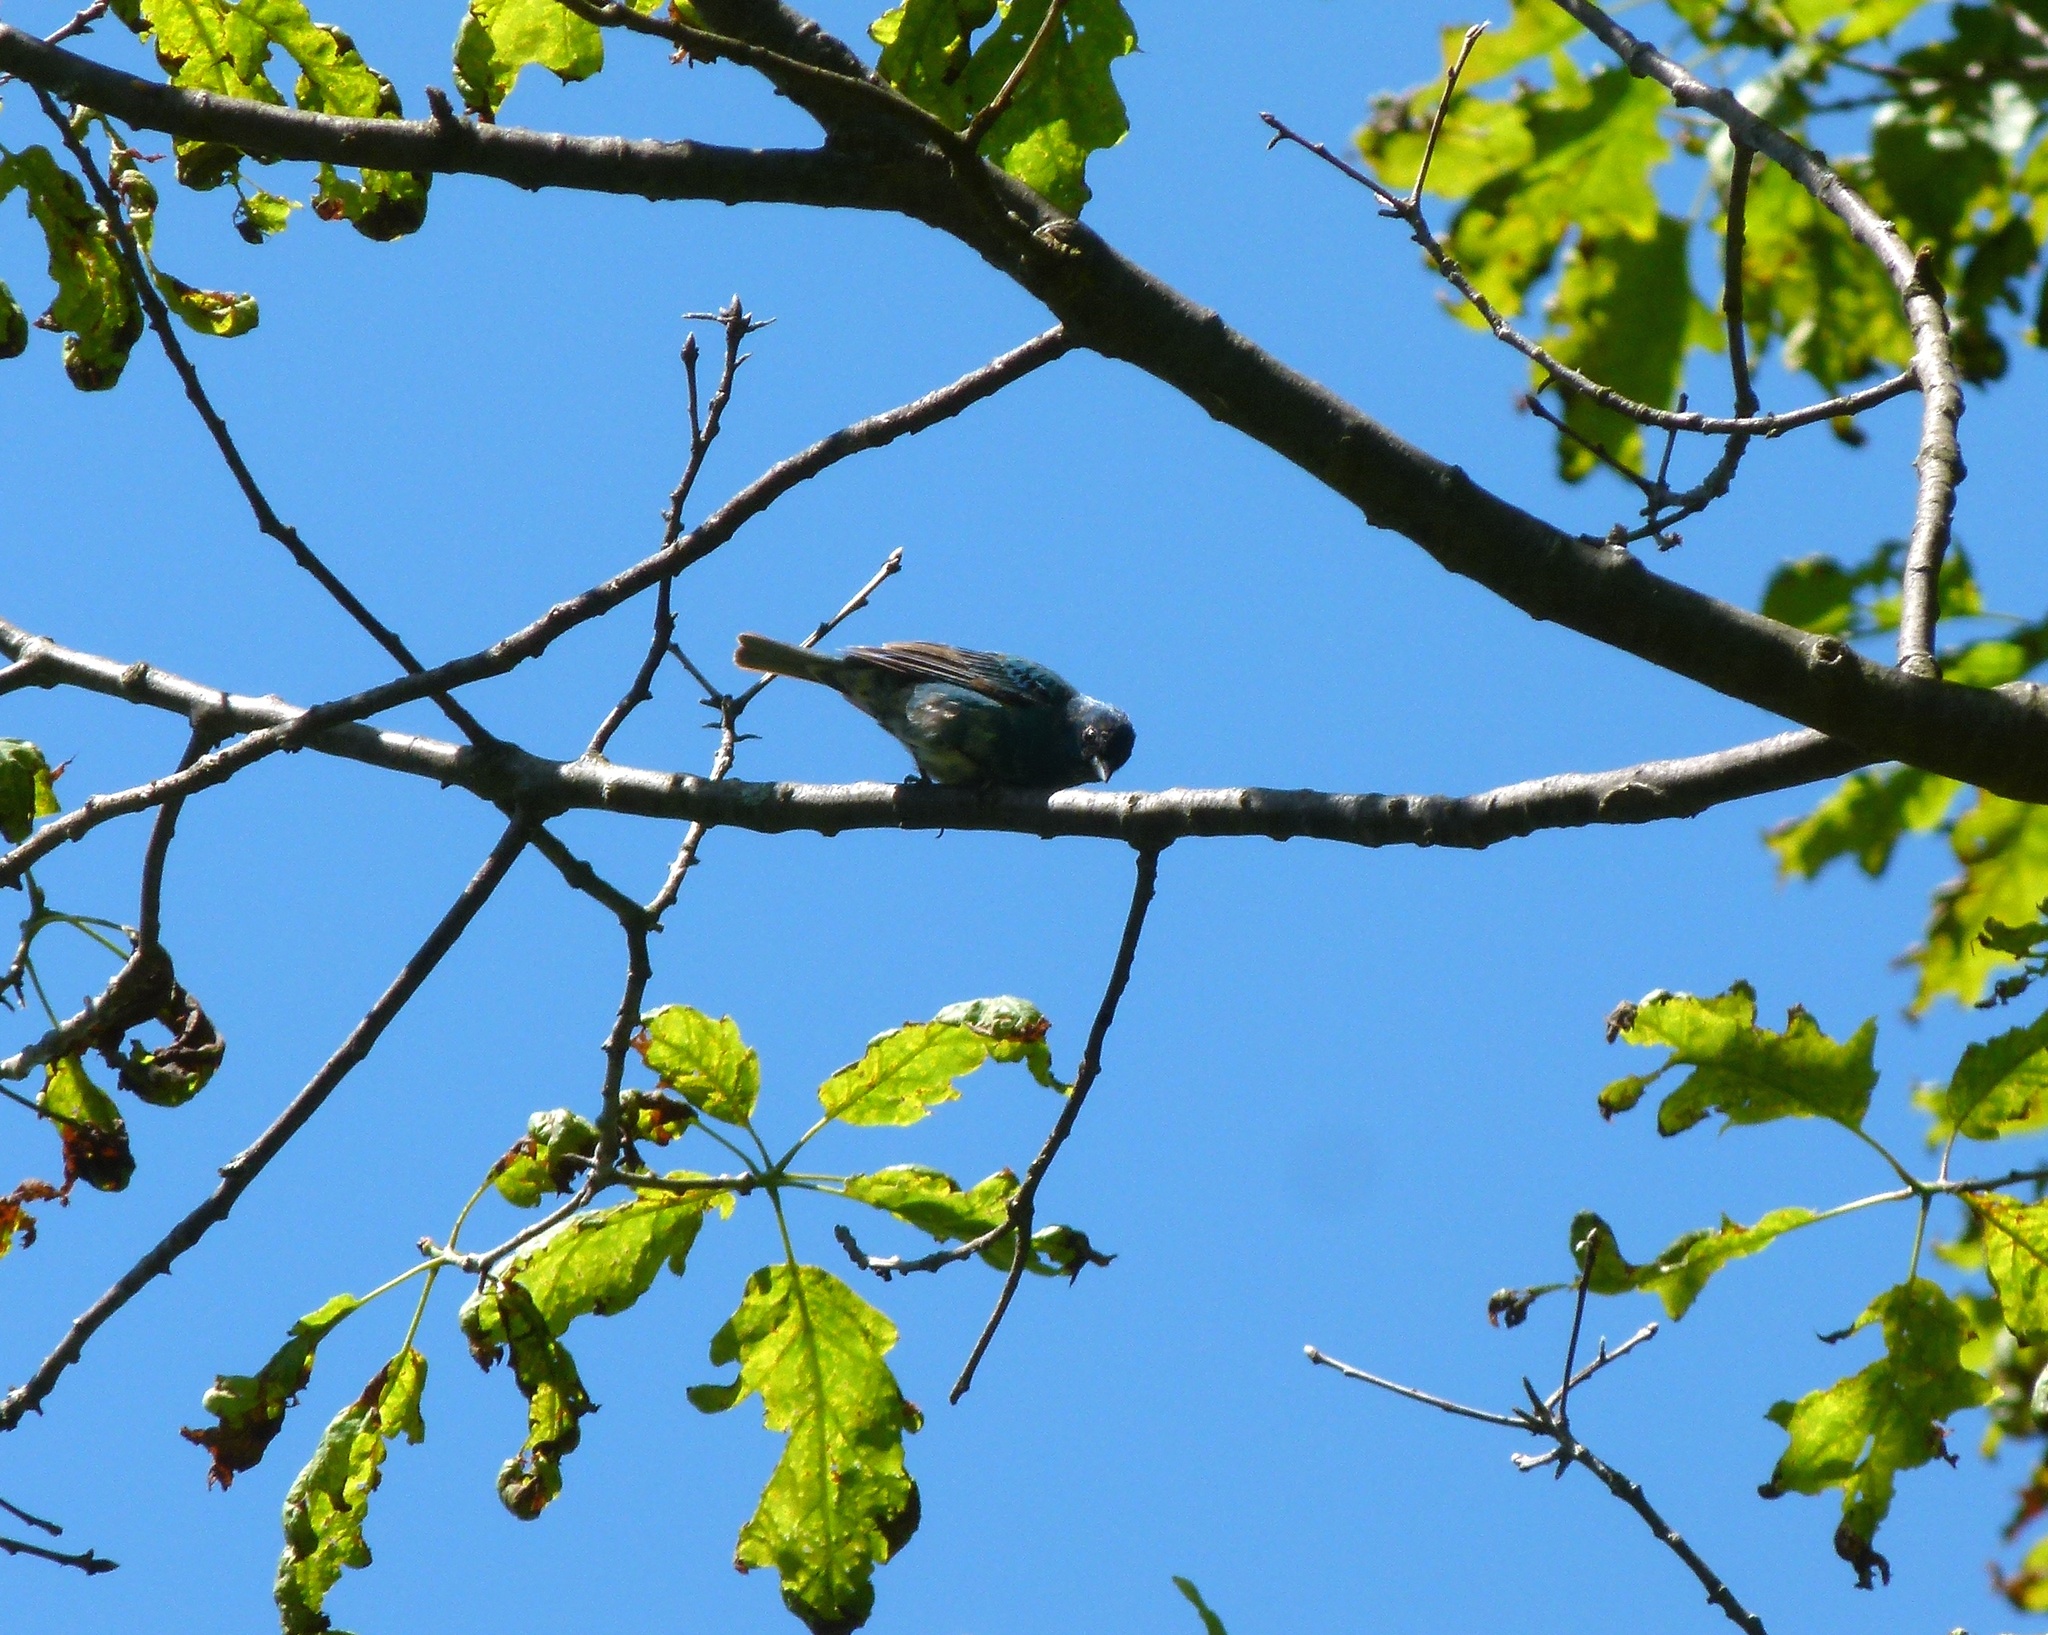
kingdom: Animalia
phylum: Chordata
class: Aves
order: Passeriformes
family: Cardinalidae
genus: Passerina
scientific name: Passerina cyanea
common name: Indigo bunting
